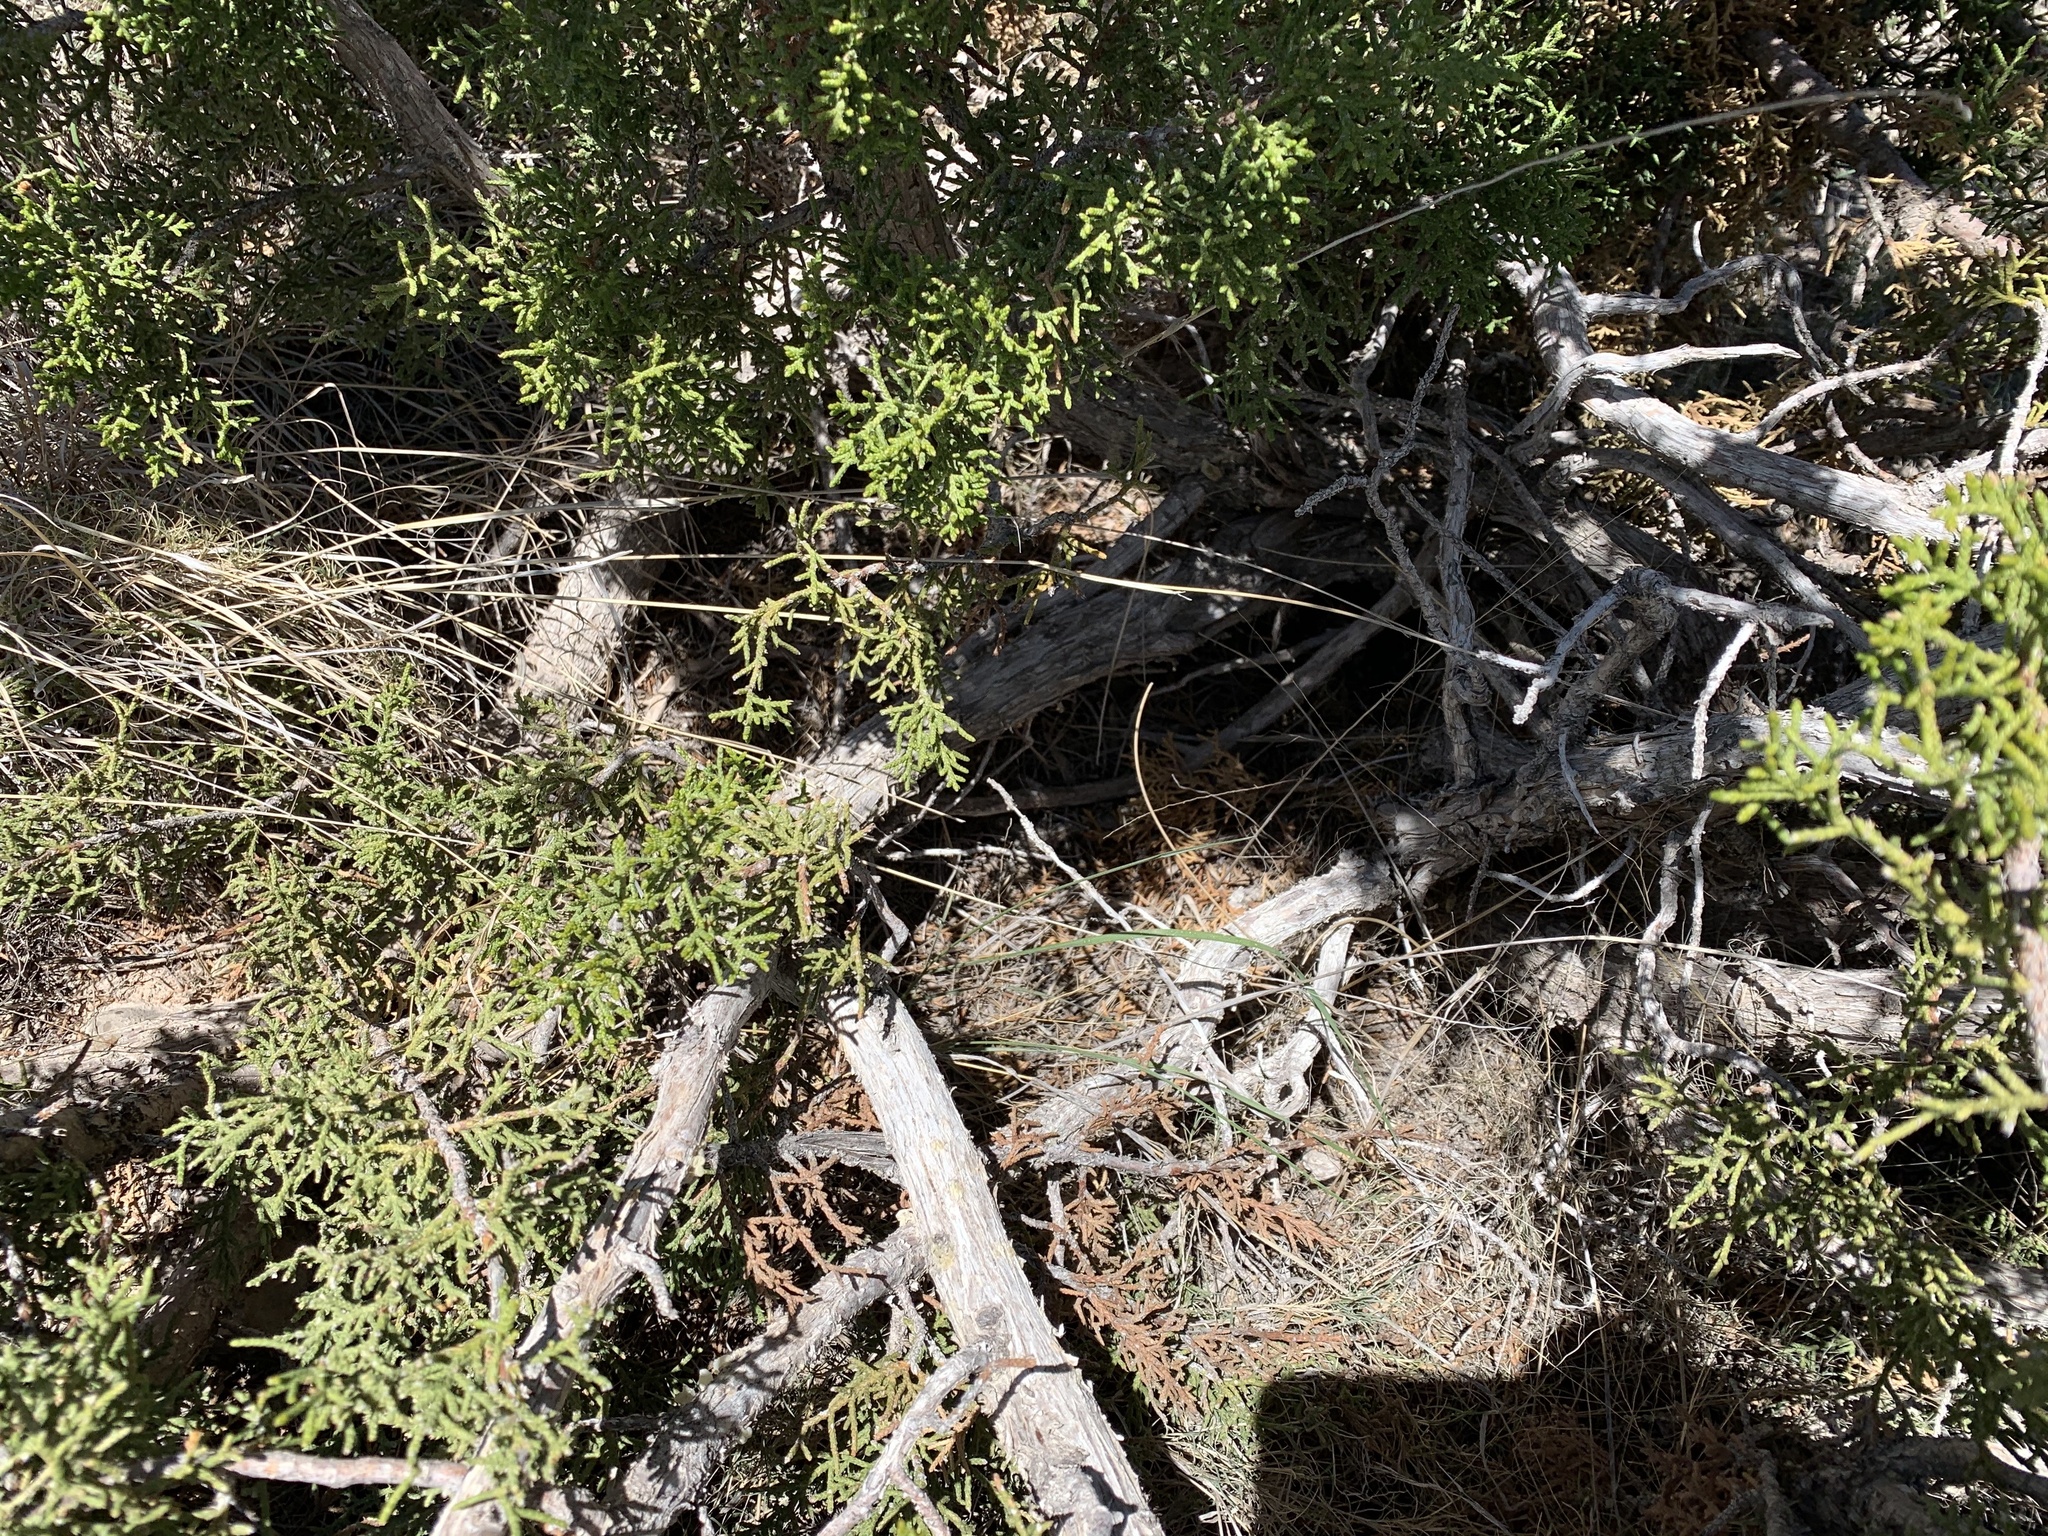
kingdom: Plantae
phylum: Tracheophyta
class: Pinopsida
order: Pinales
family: Cupressaceae
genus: Juniperus
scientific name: Juniperus monosperma
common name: One-seed juniper
